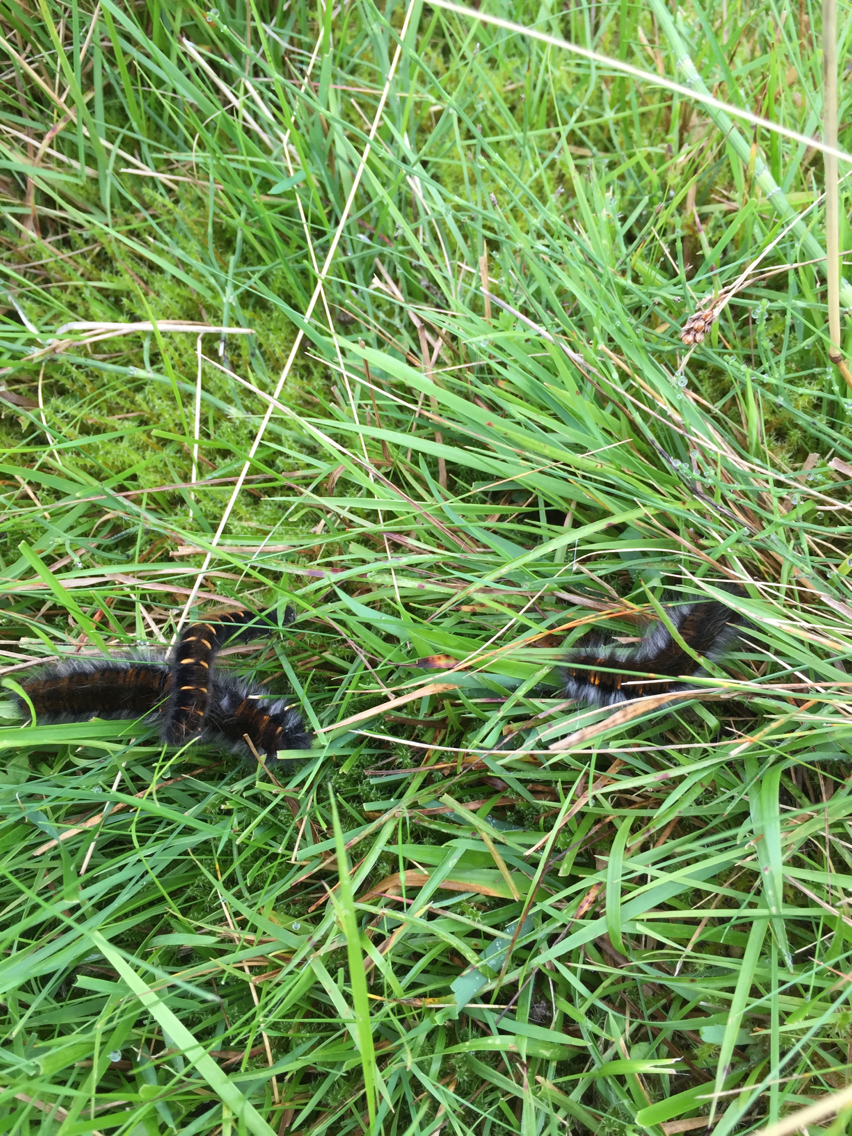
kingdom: Animalia
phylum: Arthropoda
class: Insecta
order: Lepidoptera
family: Lasiocampidae
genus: Macrothylacia
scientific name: Macrothylacia rubi
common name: Fox moth
